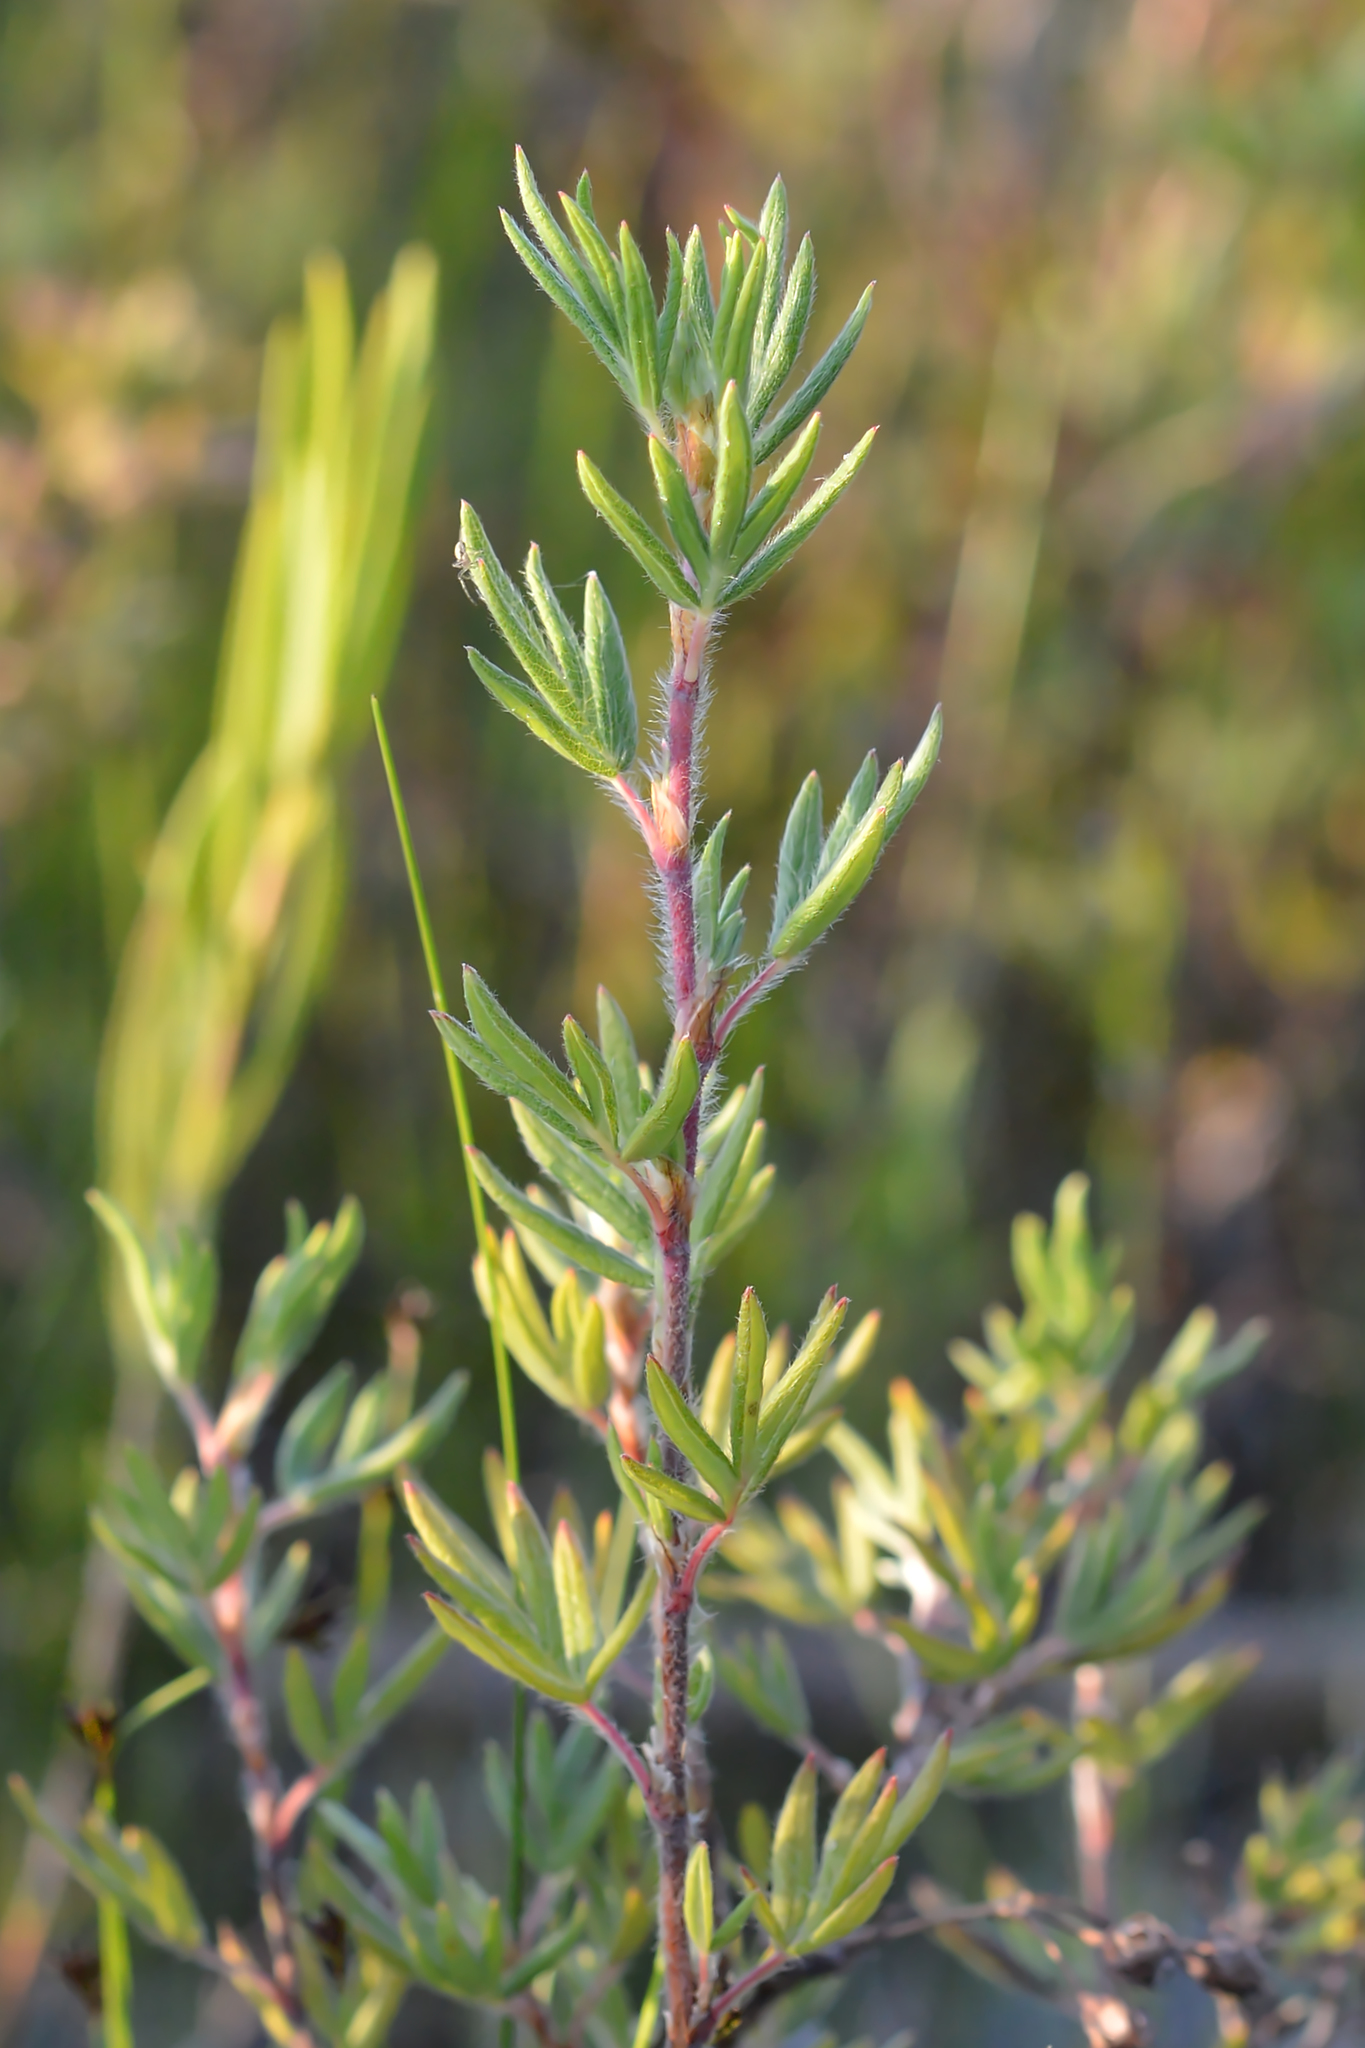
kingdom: Plantae
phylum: Tracheophyta
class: Magnoliopsida
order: Rosales
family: Rosaceae
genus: Dasiphora
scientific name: Dasiphora fruticosa
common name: Shrubby cinquefoil
